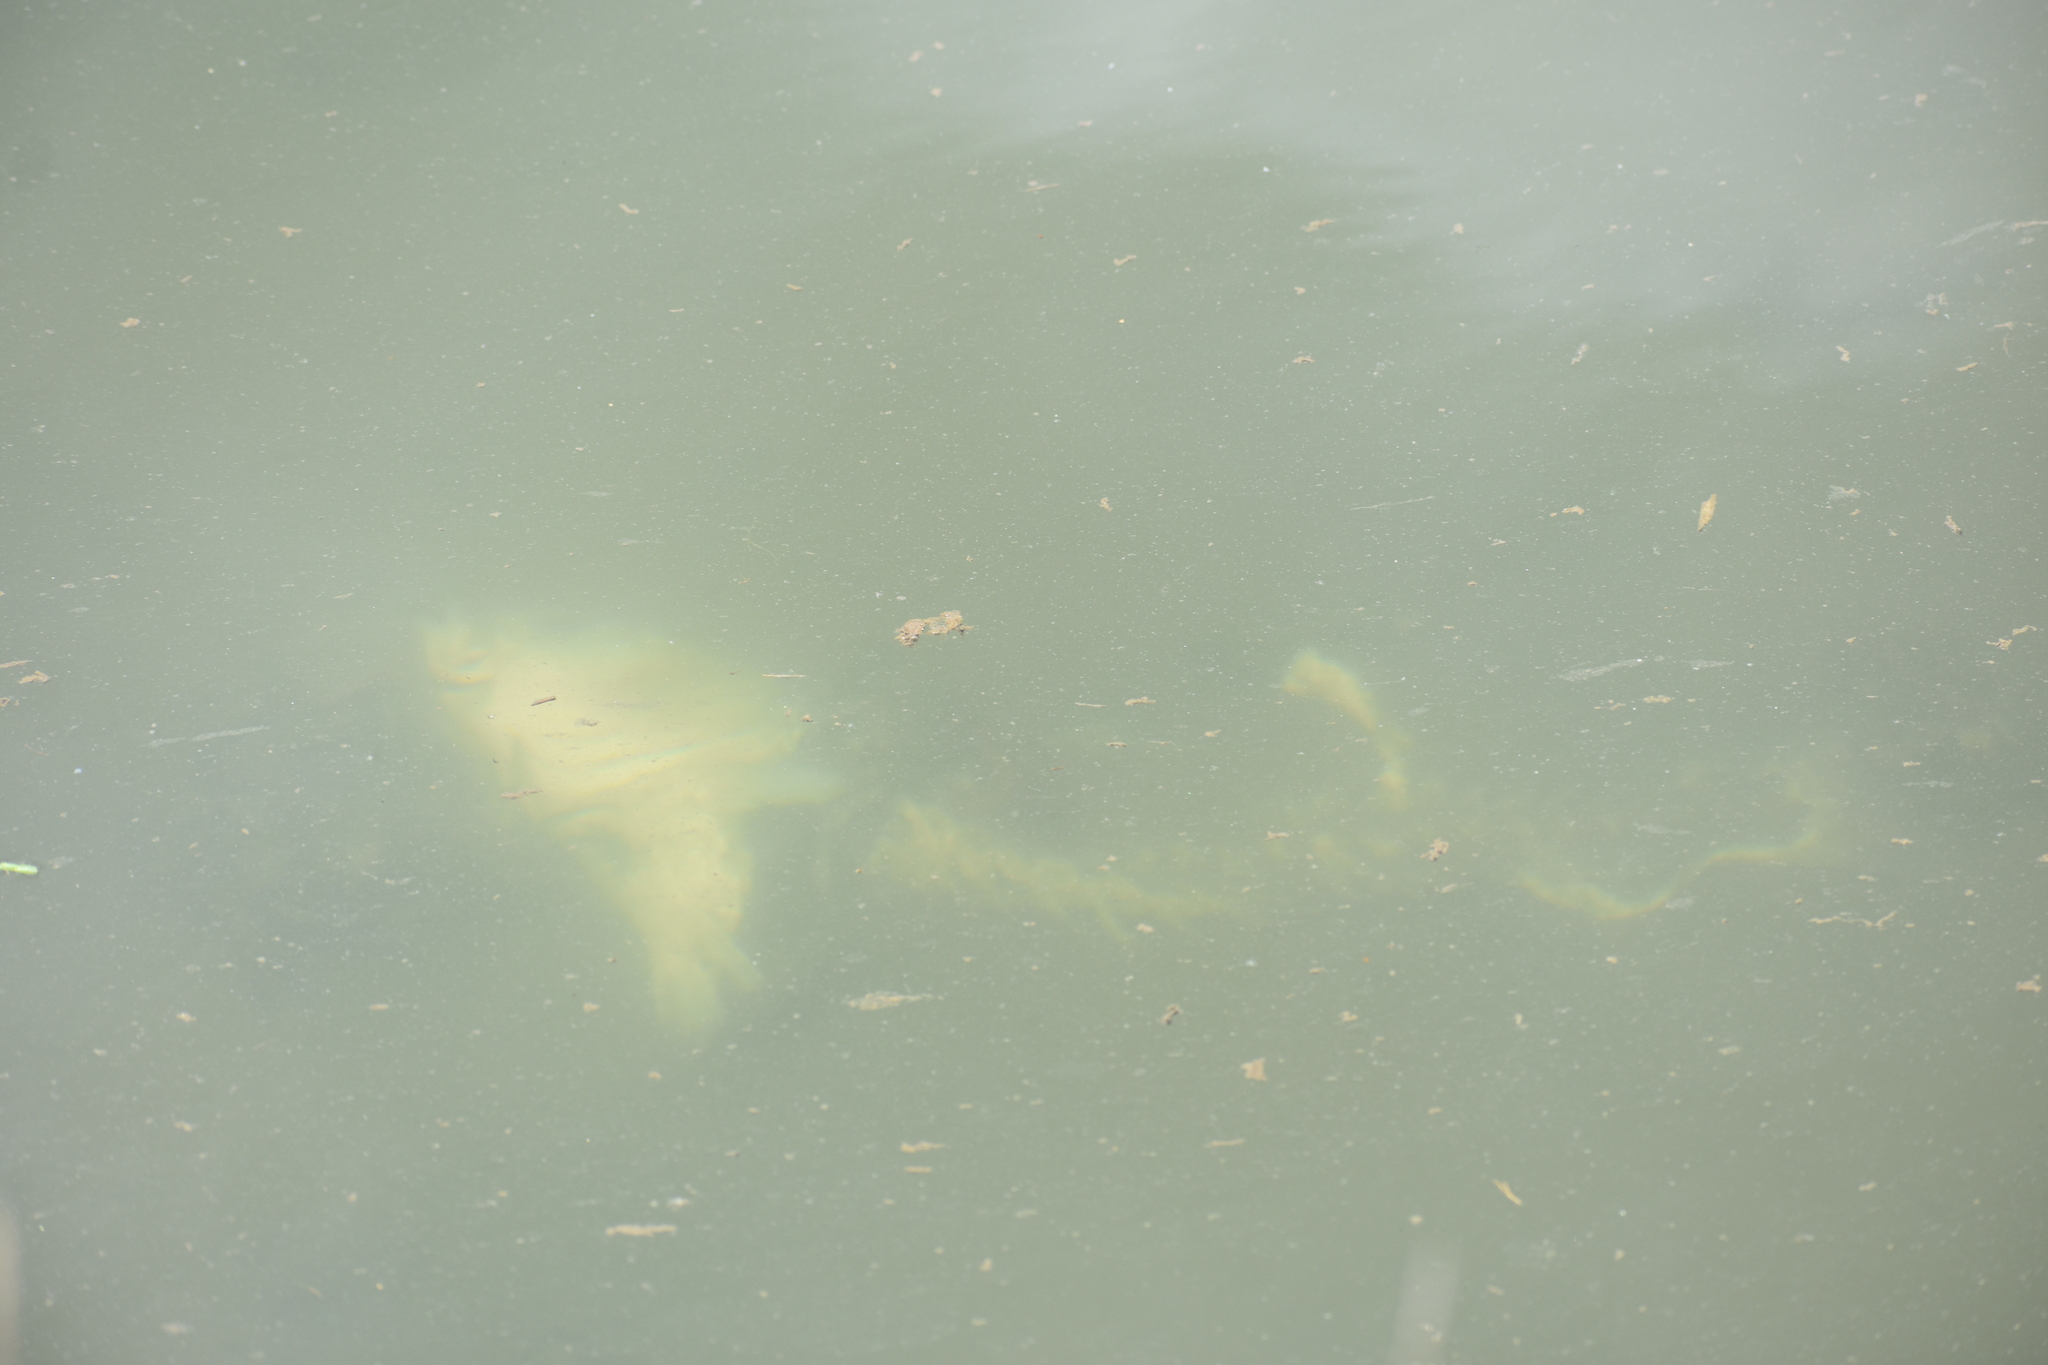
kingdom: Animalia
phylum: Chordata
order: Perciformes
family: Moronidae
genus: Morone
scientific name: Morone saxatilis
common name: Striped bass
